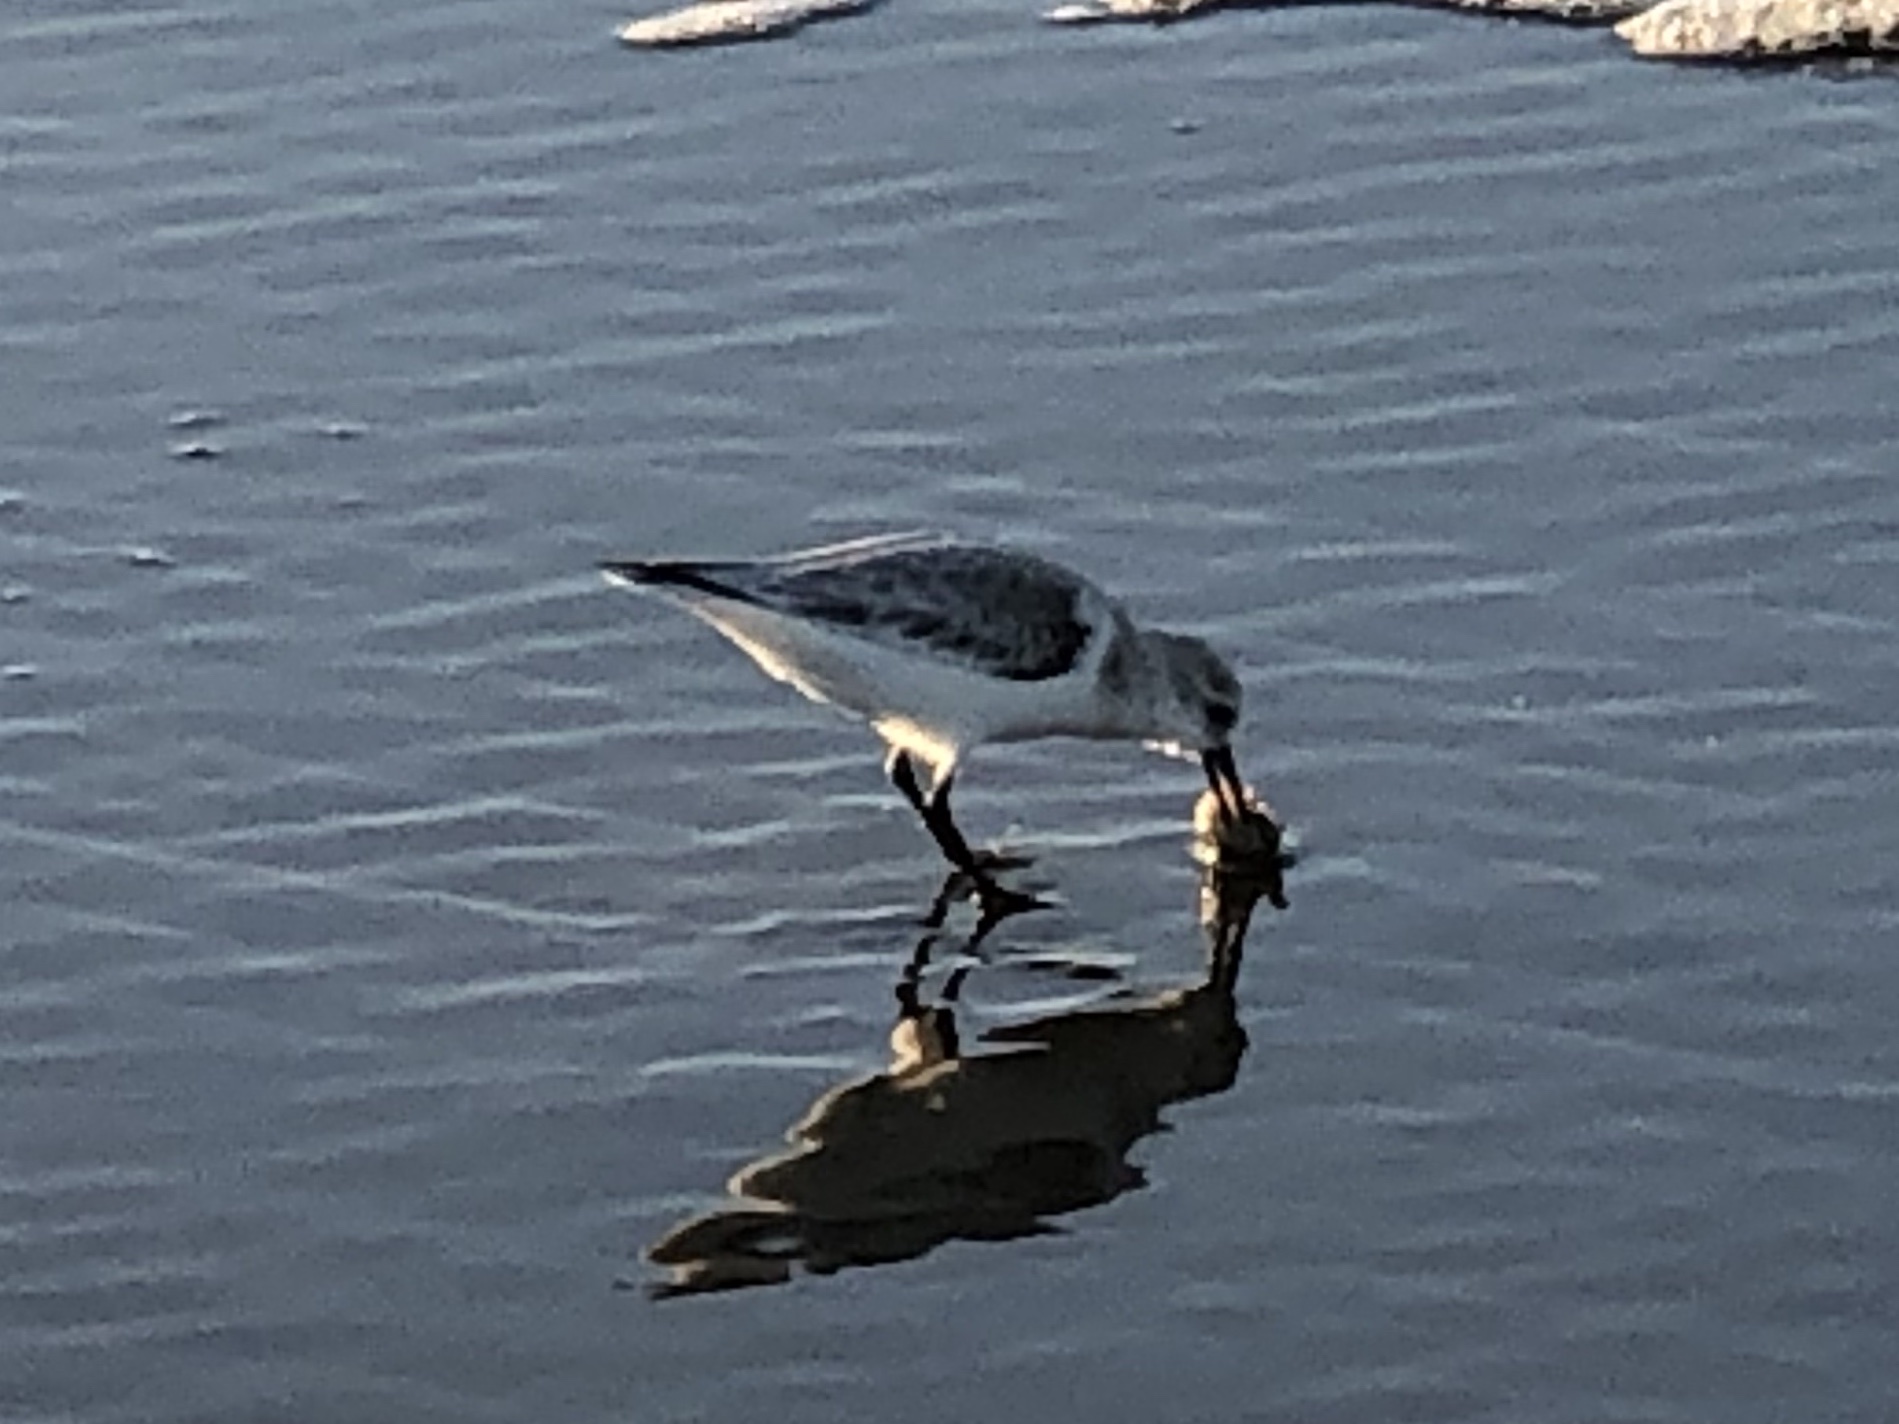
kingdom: Animalia
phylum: Chordata
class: Aves
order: Charadriiformes
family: Scolopacidae
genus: Calidris
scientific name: Calidris alba
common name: Sanderling
